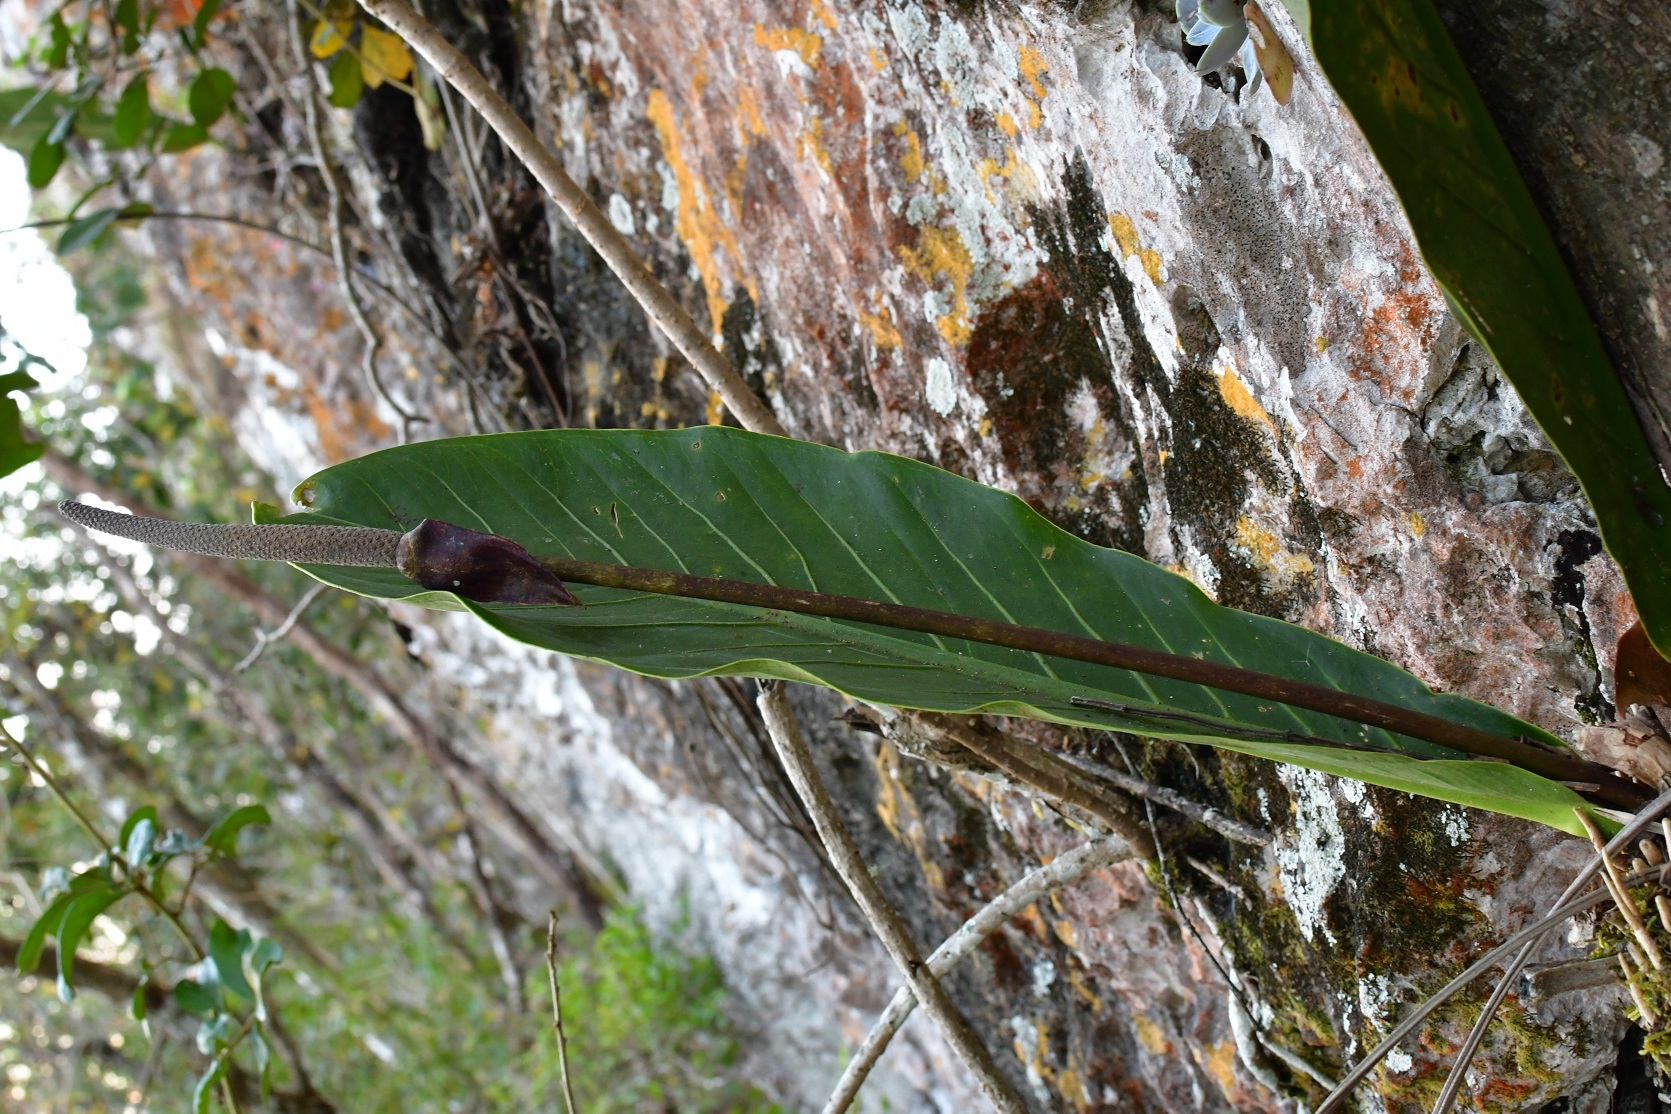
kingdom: Plantae
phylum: Tracheophyta
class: Liliopsida
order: Alismatales
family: Araceae
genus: Anthurium
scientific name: Anthurium schlechtendalii
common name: Laceleaf
